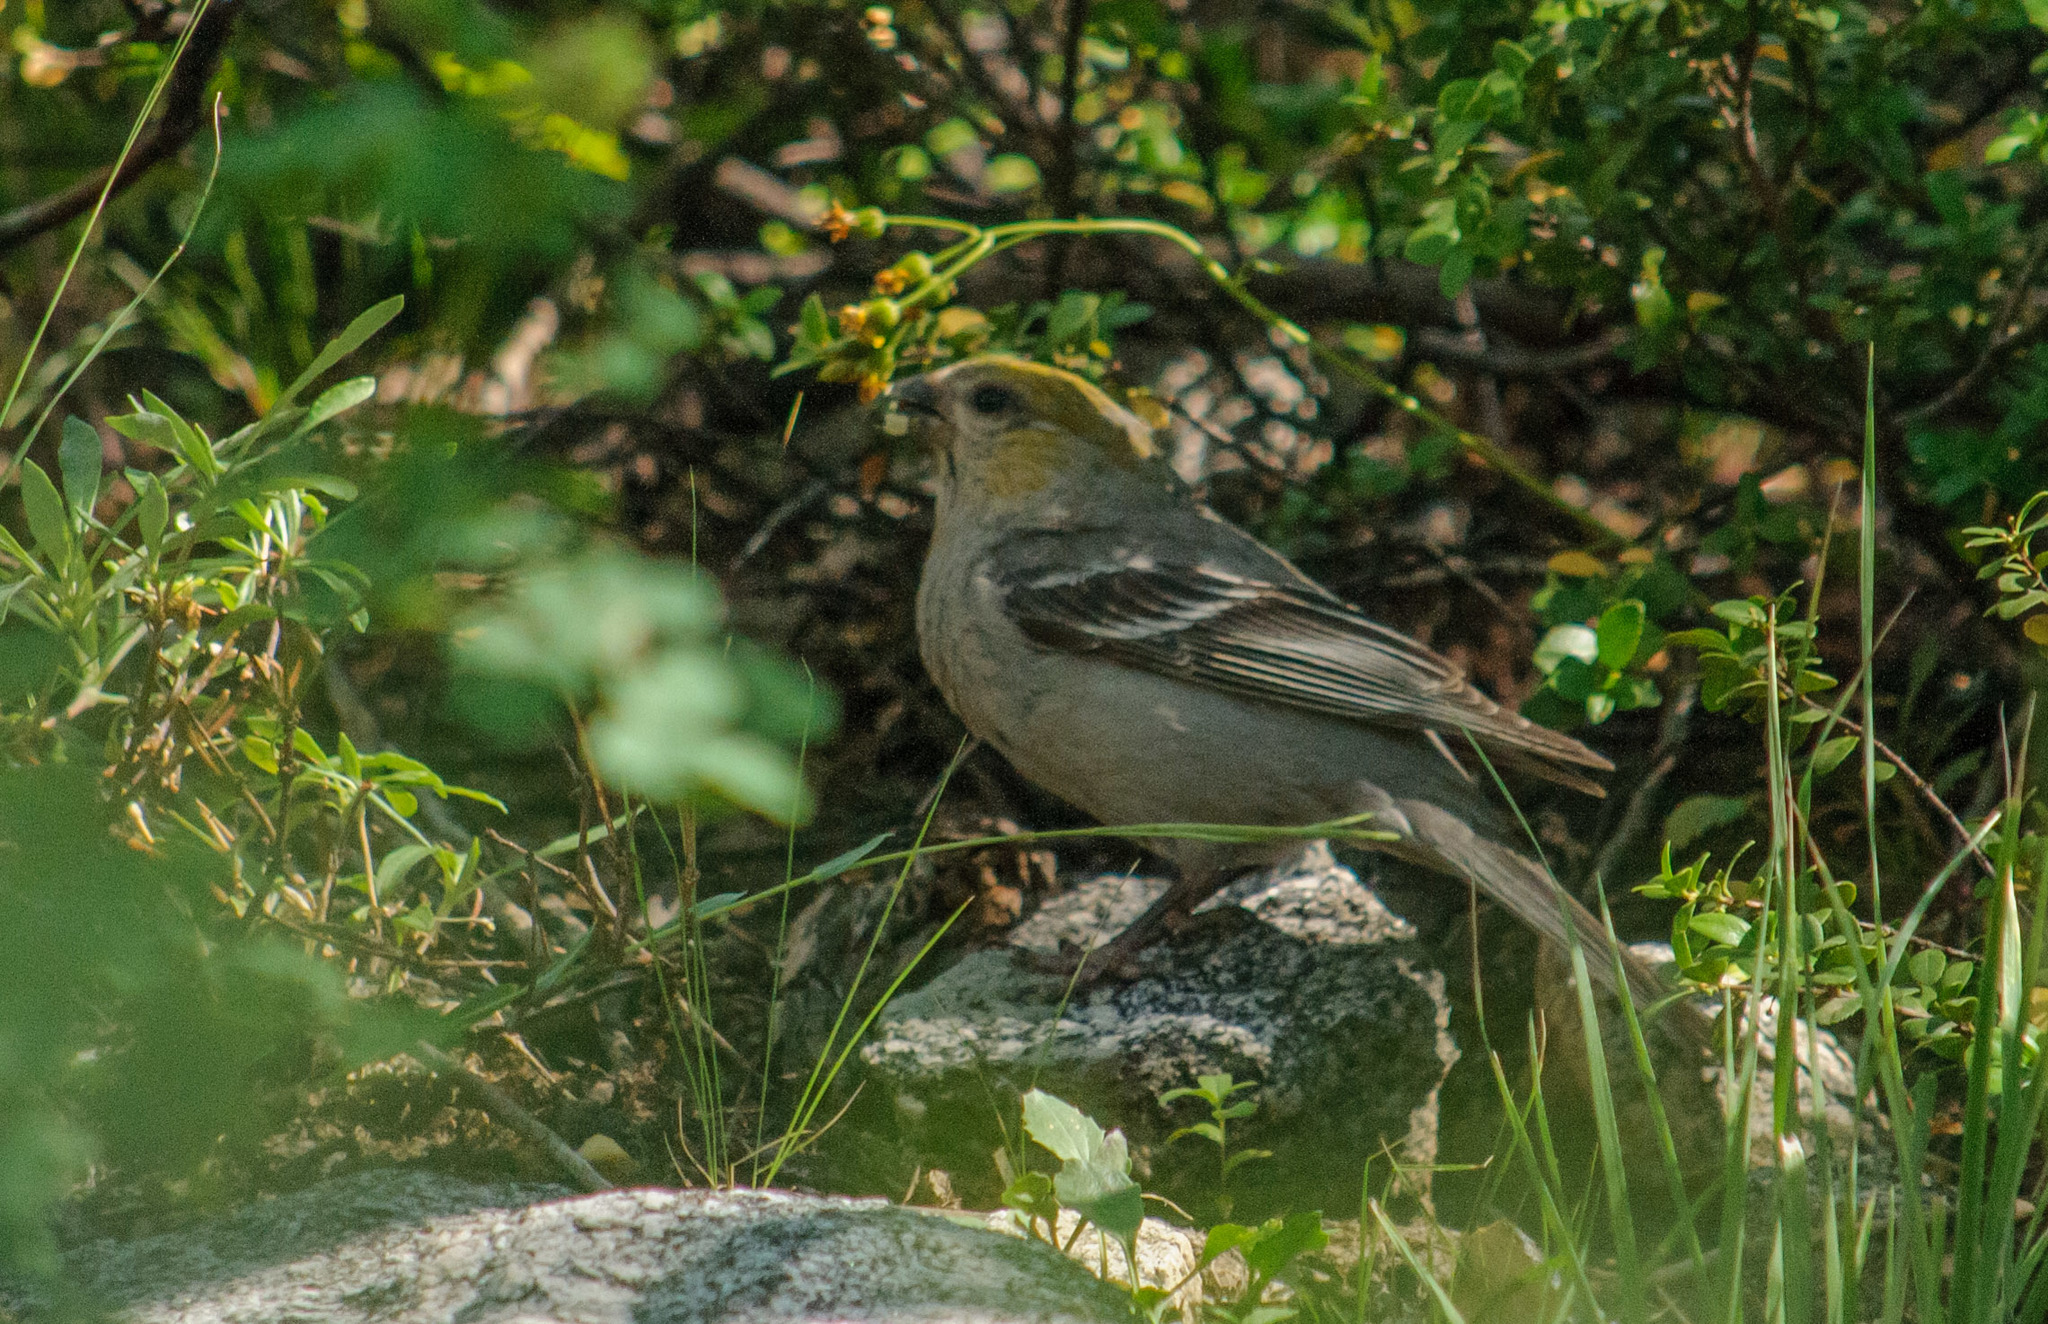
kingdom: Animalia
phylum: Chordata
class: Aves
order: Passeriformes
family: Fringillidae
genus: Pinicola
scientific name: Pinicola enucleator
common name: Pine grosbeak
